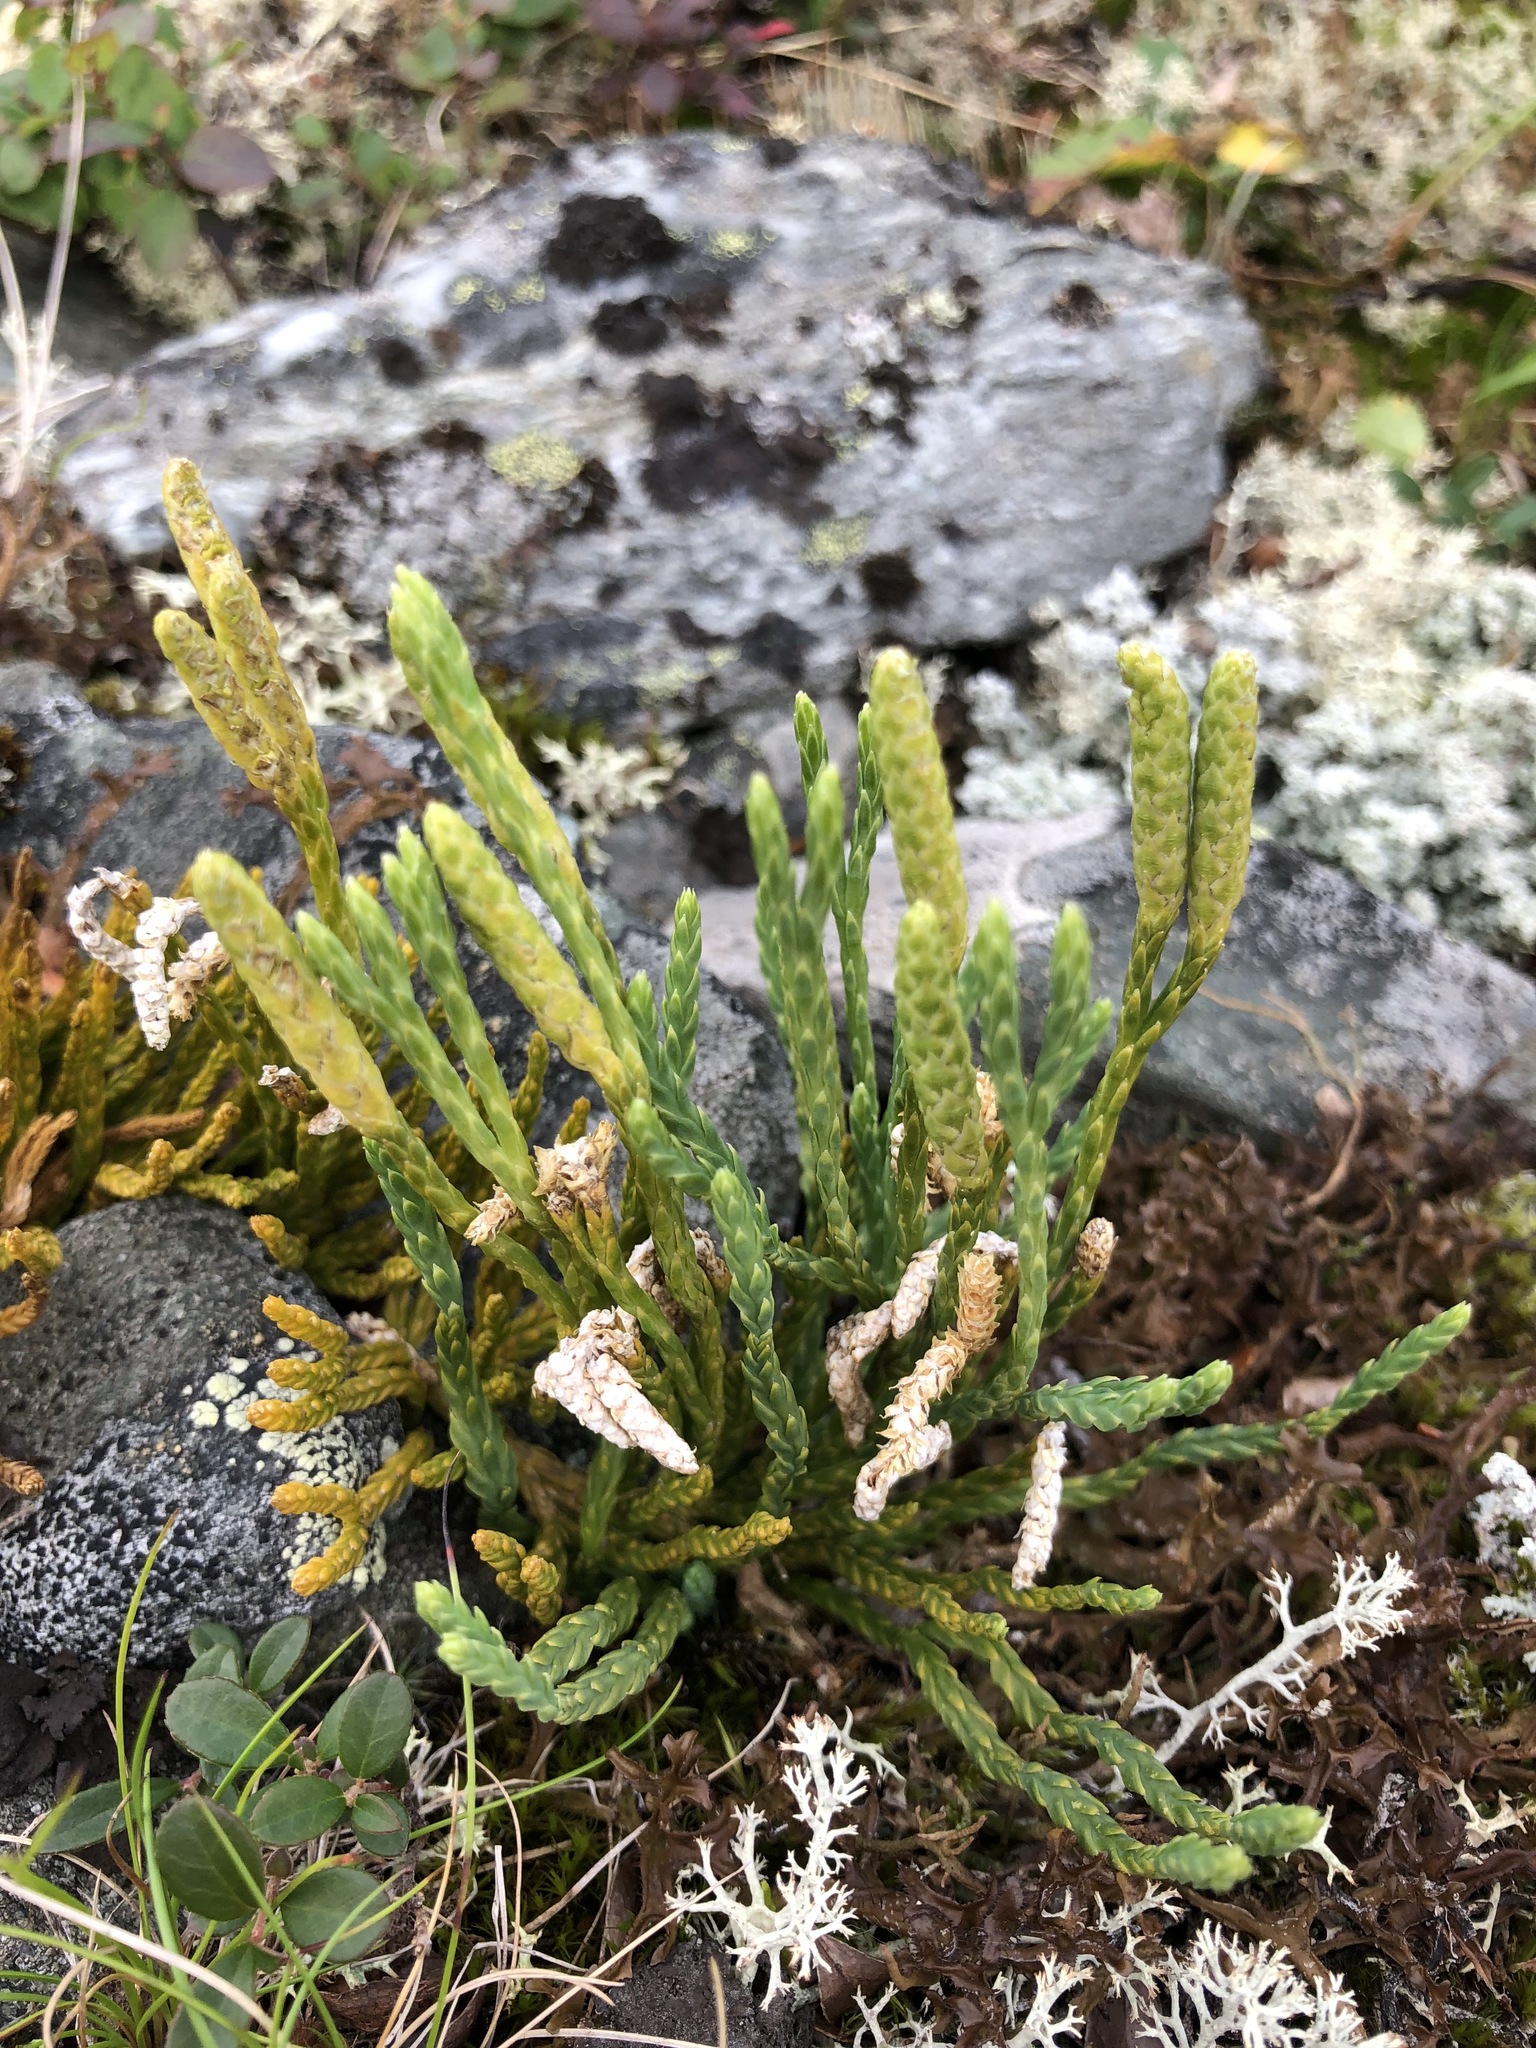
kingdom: Plantae
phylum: Tracheophyta
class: Lycopodiopsida
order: Lycopodiales
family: Lycopodiaceae
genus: Diphasiastrum
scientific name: Diphasiastrum alpinum
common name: Alpine clubmoss
